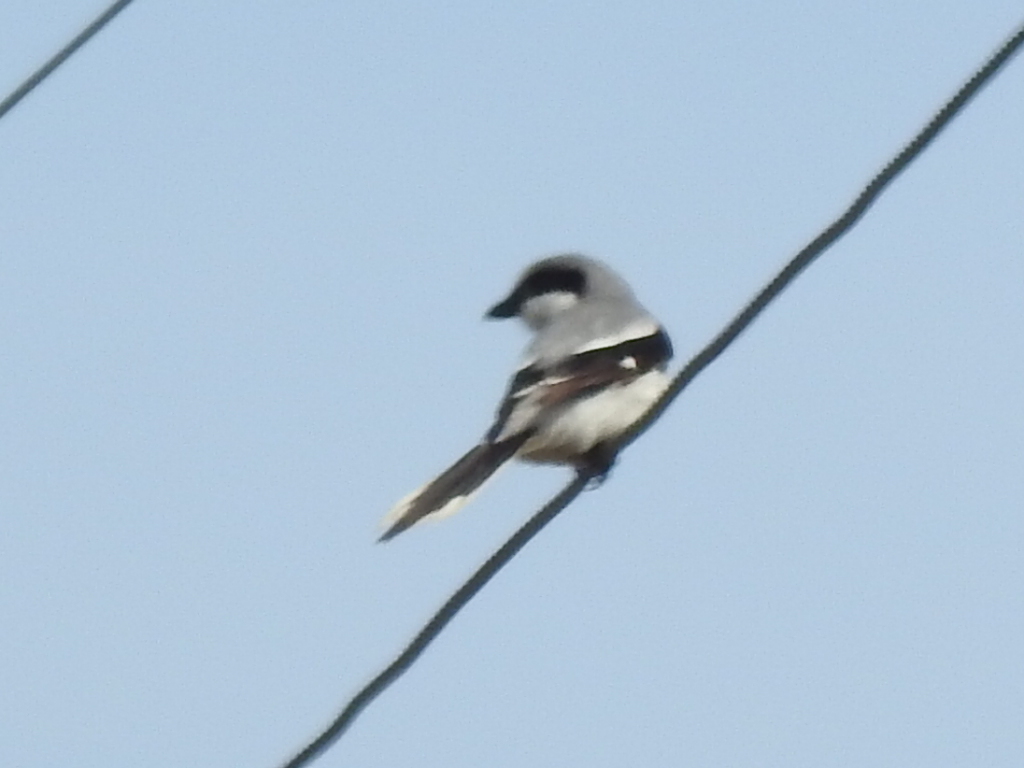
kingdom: Animalia
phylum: Chordata
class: Aves
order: Passeriformes
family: Laniidae
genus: Lanius
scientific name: Lanius ludovicianus
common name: Loggerhead shrike
